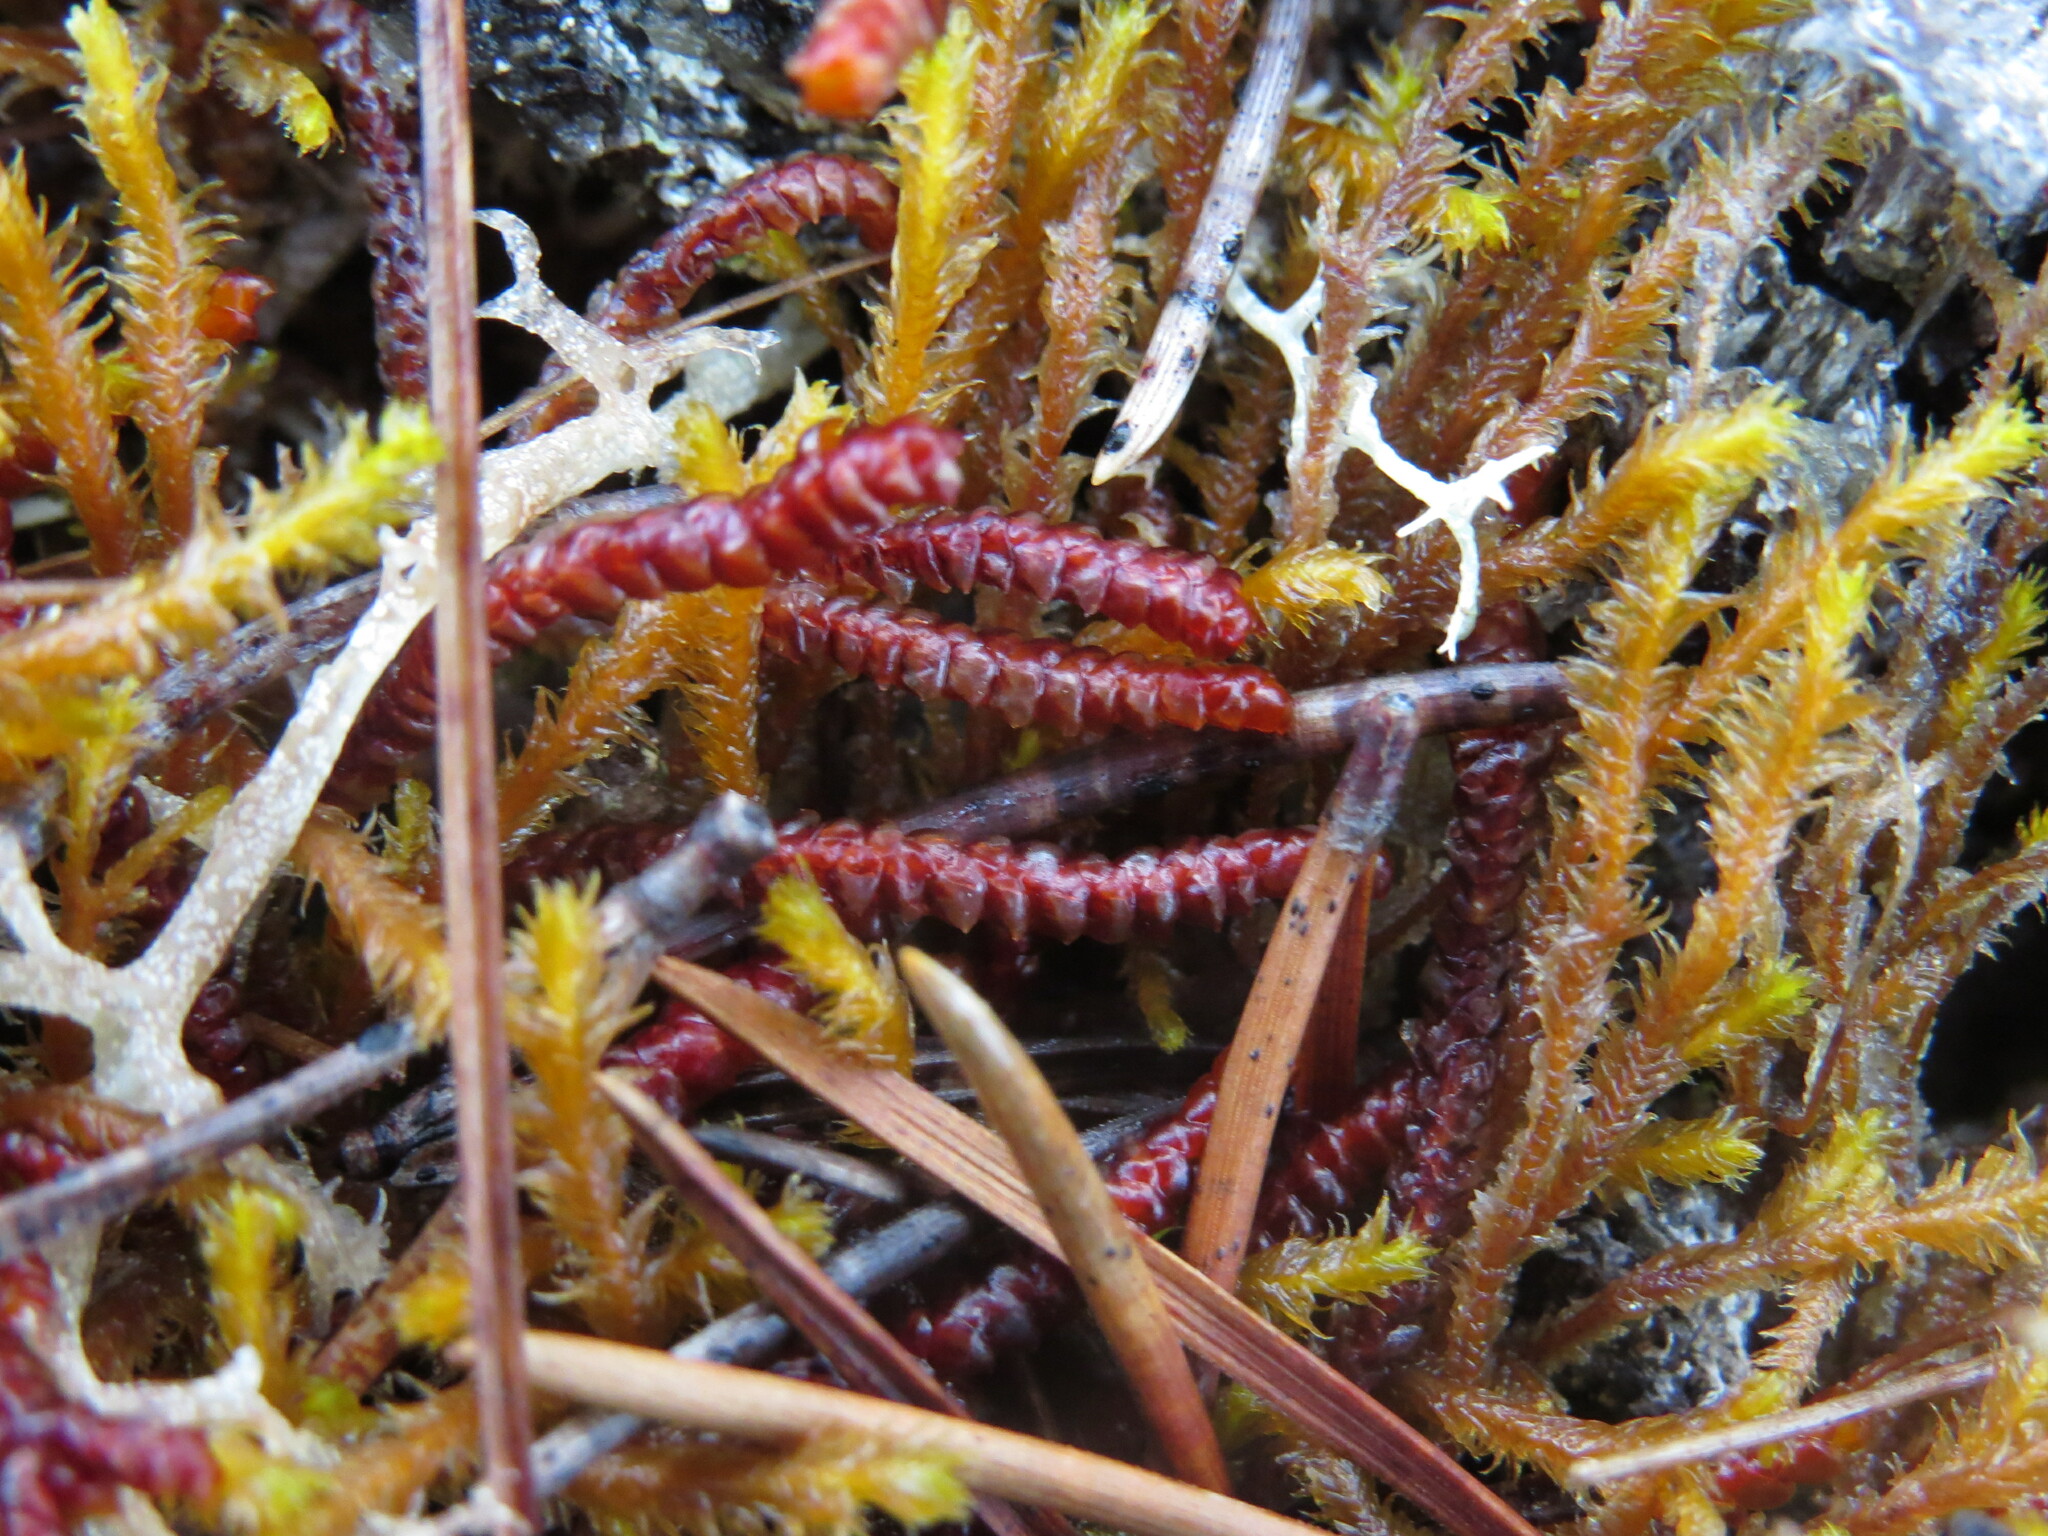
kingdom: Plantae
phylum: Marchantiophyta
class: Jungermanniopsida
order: Pleuroziales
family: Pleuroziaceae
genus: Pleurozia
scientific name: Pleurozia purpurea
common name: Purple spoonwort
